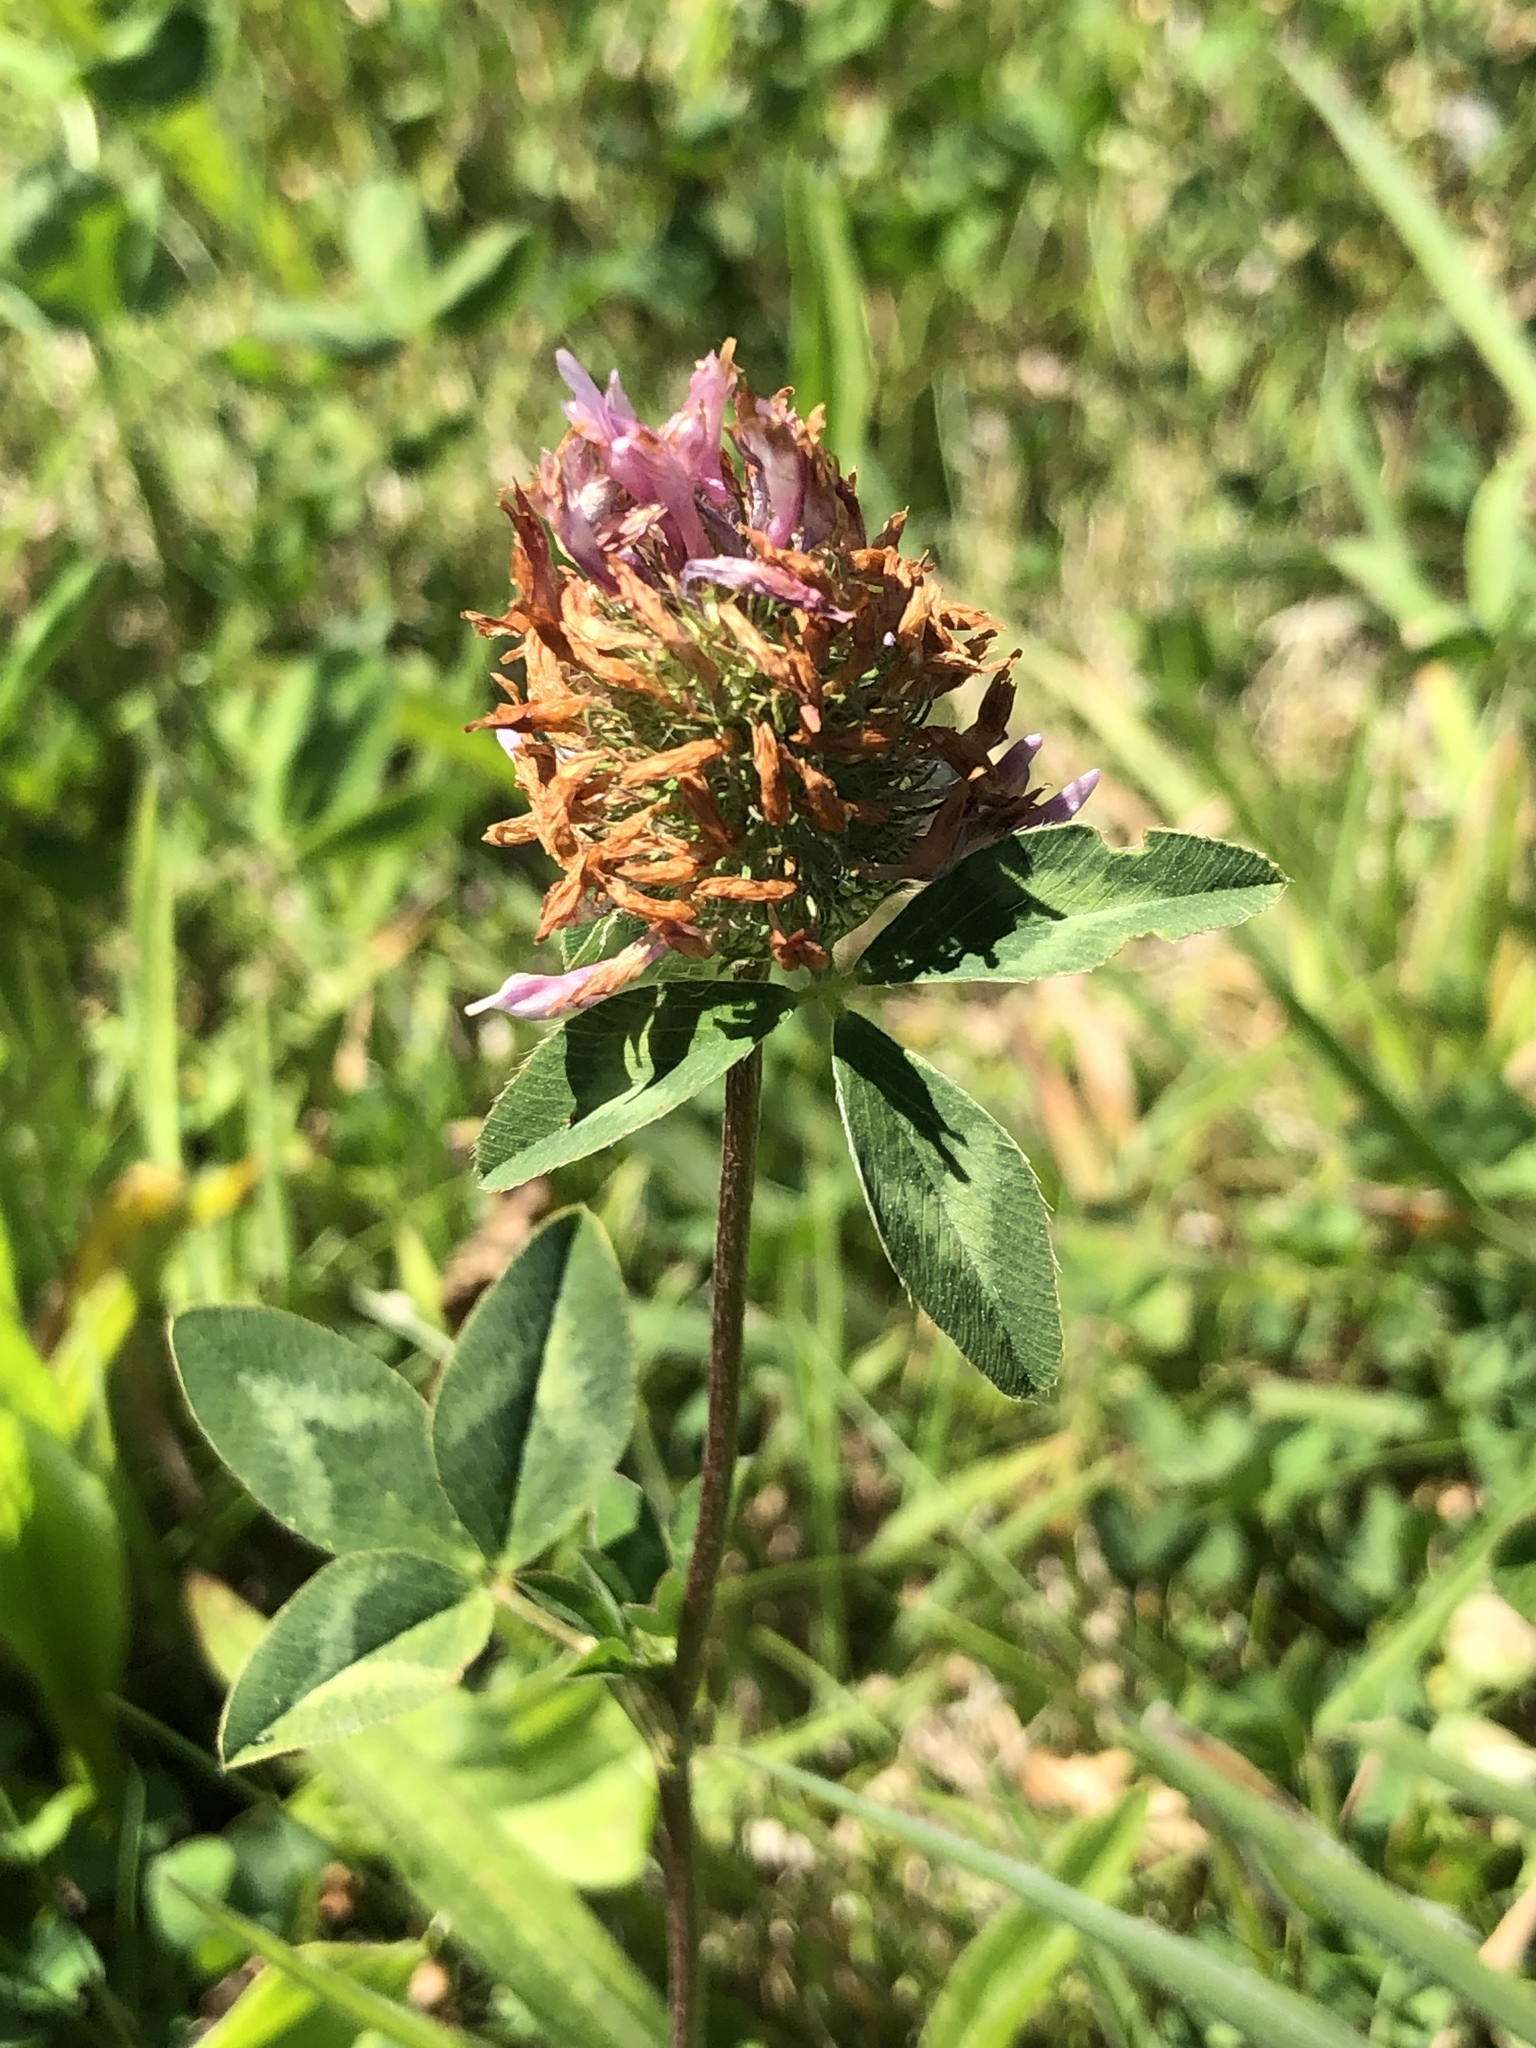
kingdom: Plantae
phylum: Tracheophyta
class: Magnoliopsida
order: Fabales
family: Fabaceae
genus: Trifolium
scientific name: Trifolium pratense
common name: Red clover
